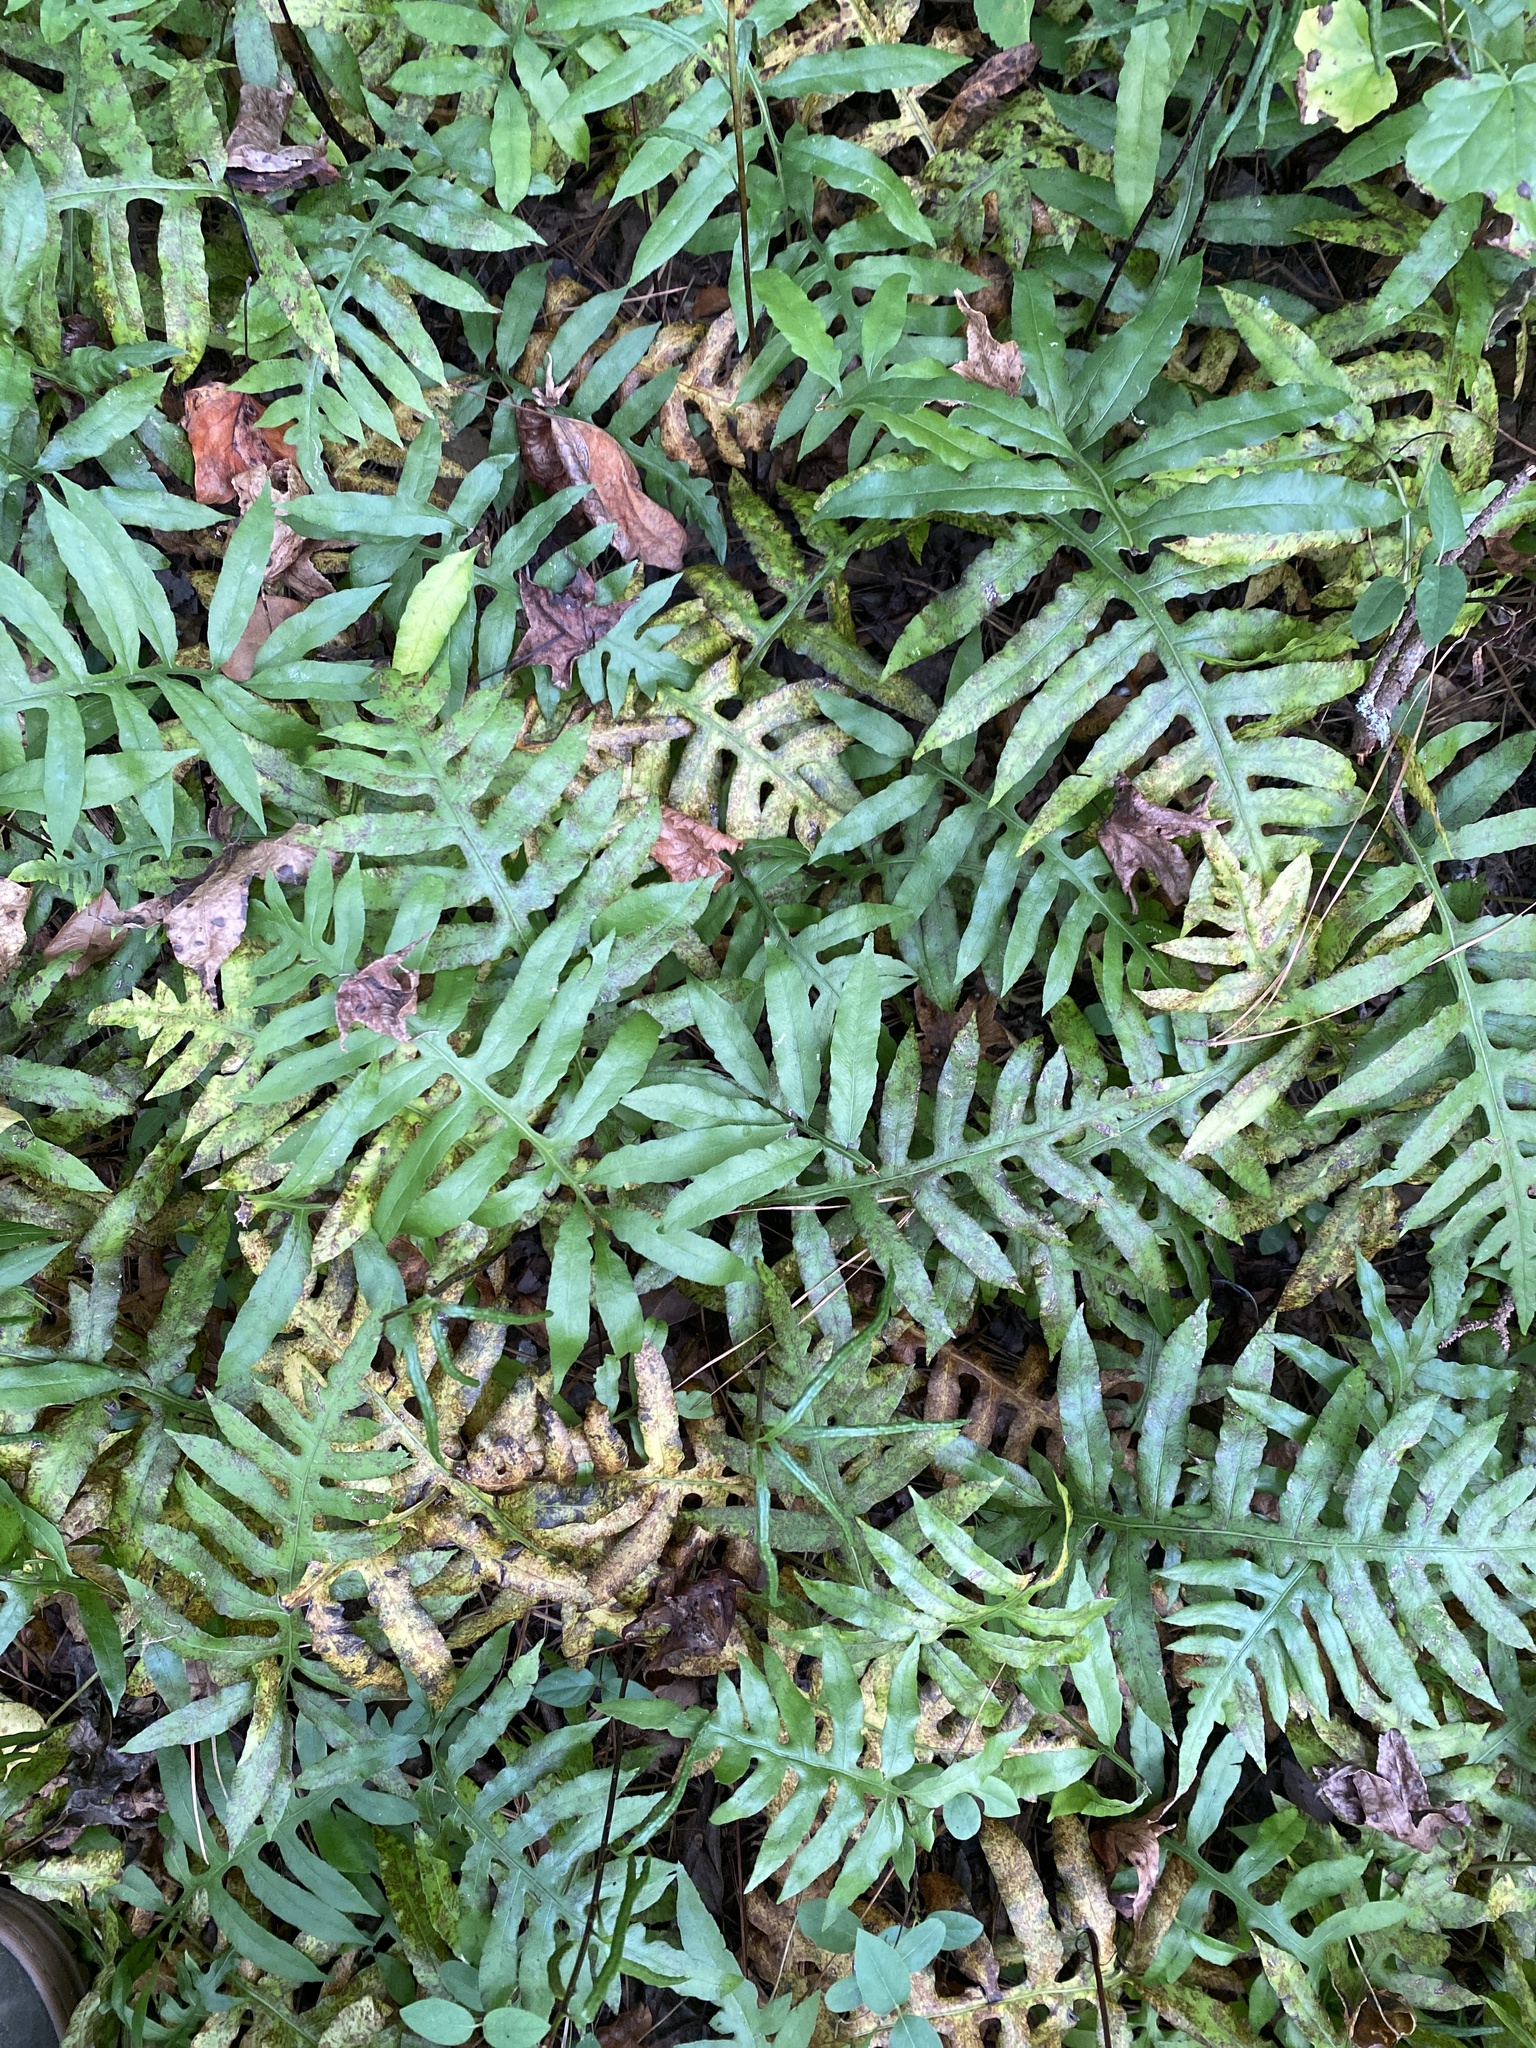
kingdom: Plantae
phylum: Tracheophyta
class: Polypodiopsida
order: Polypodiales
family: Blechnaceae
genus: Lorinseria
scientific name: Lorinseria areolata
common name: Dwarf chain fern
